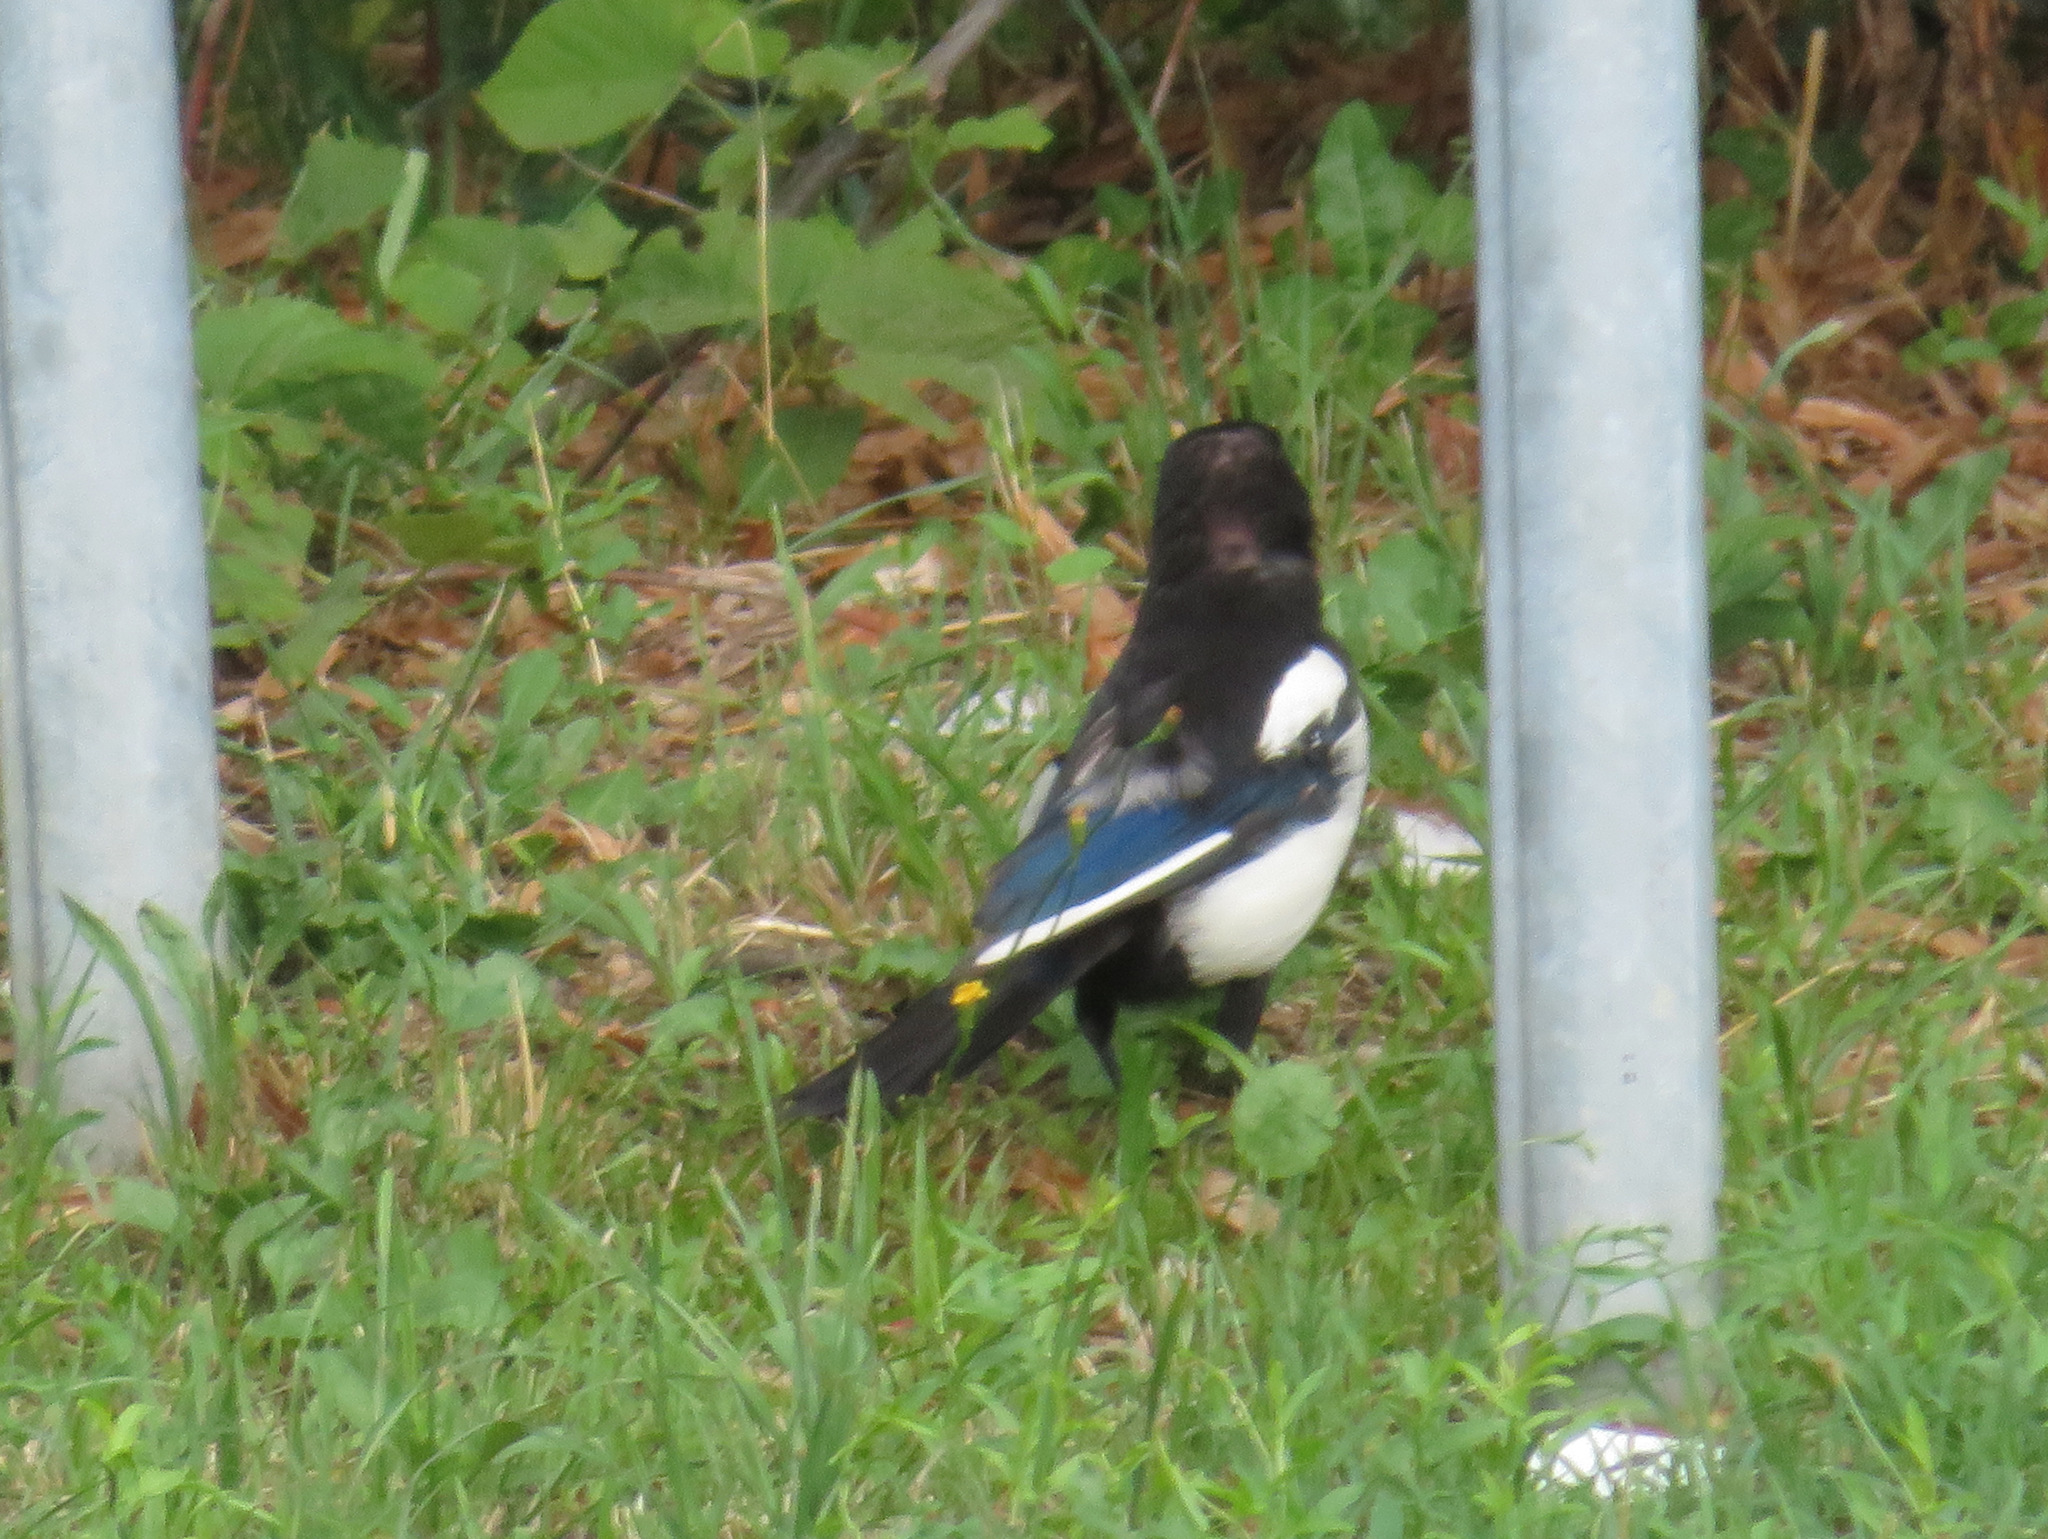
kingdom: Animalia
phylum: Chordata
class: Aves
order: Passeriformes
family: Corvidae
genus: Pica
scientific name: Pica pica
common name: Eurasian magpie
